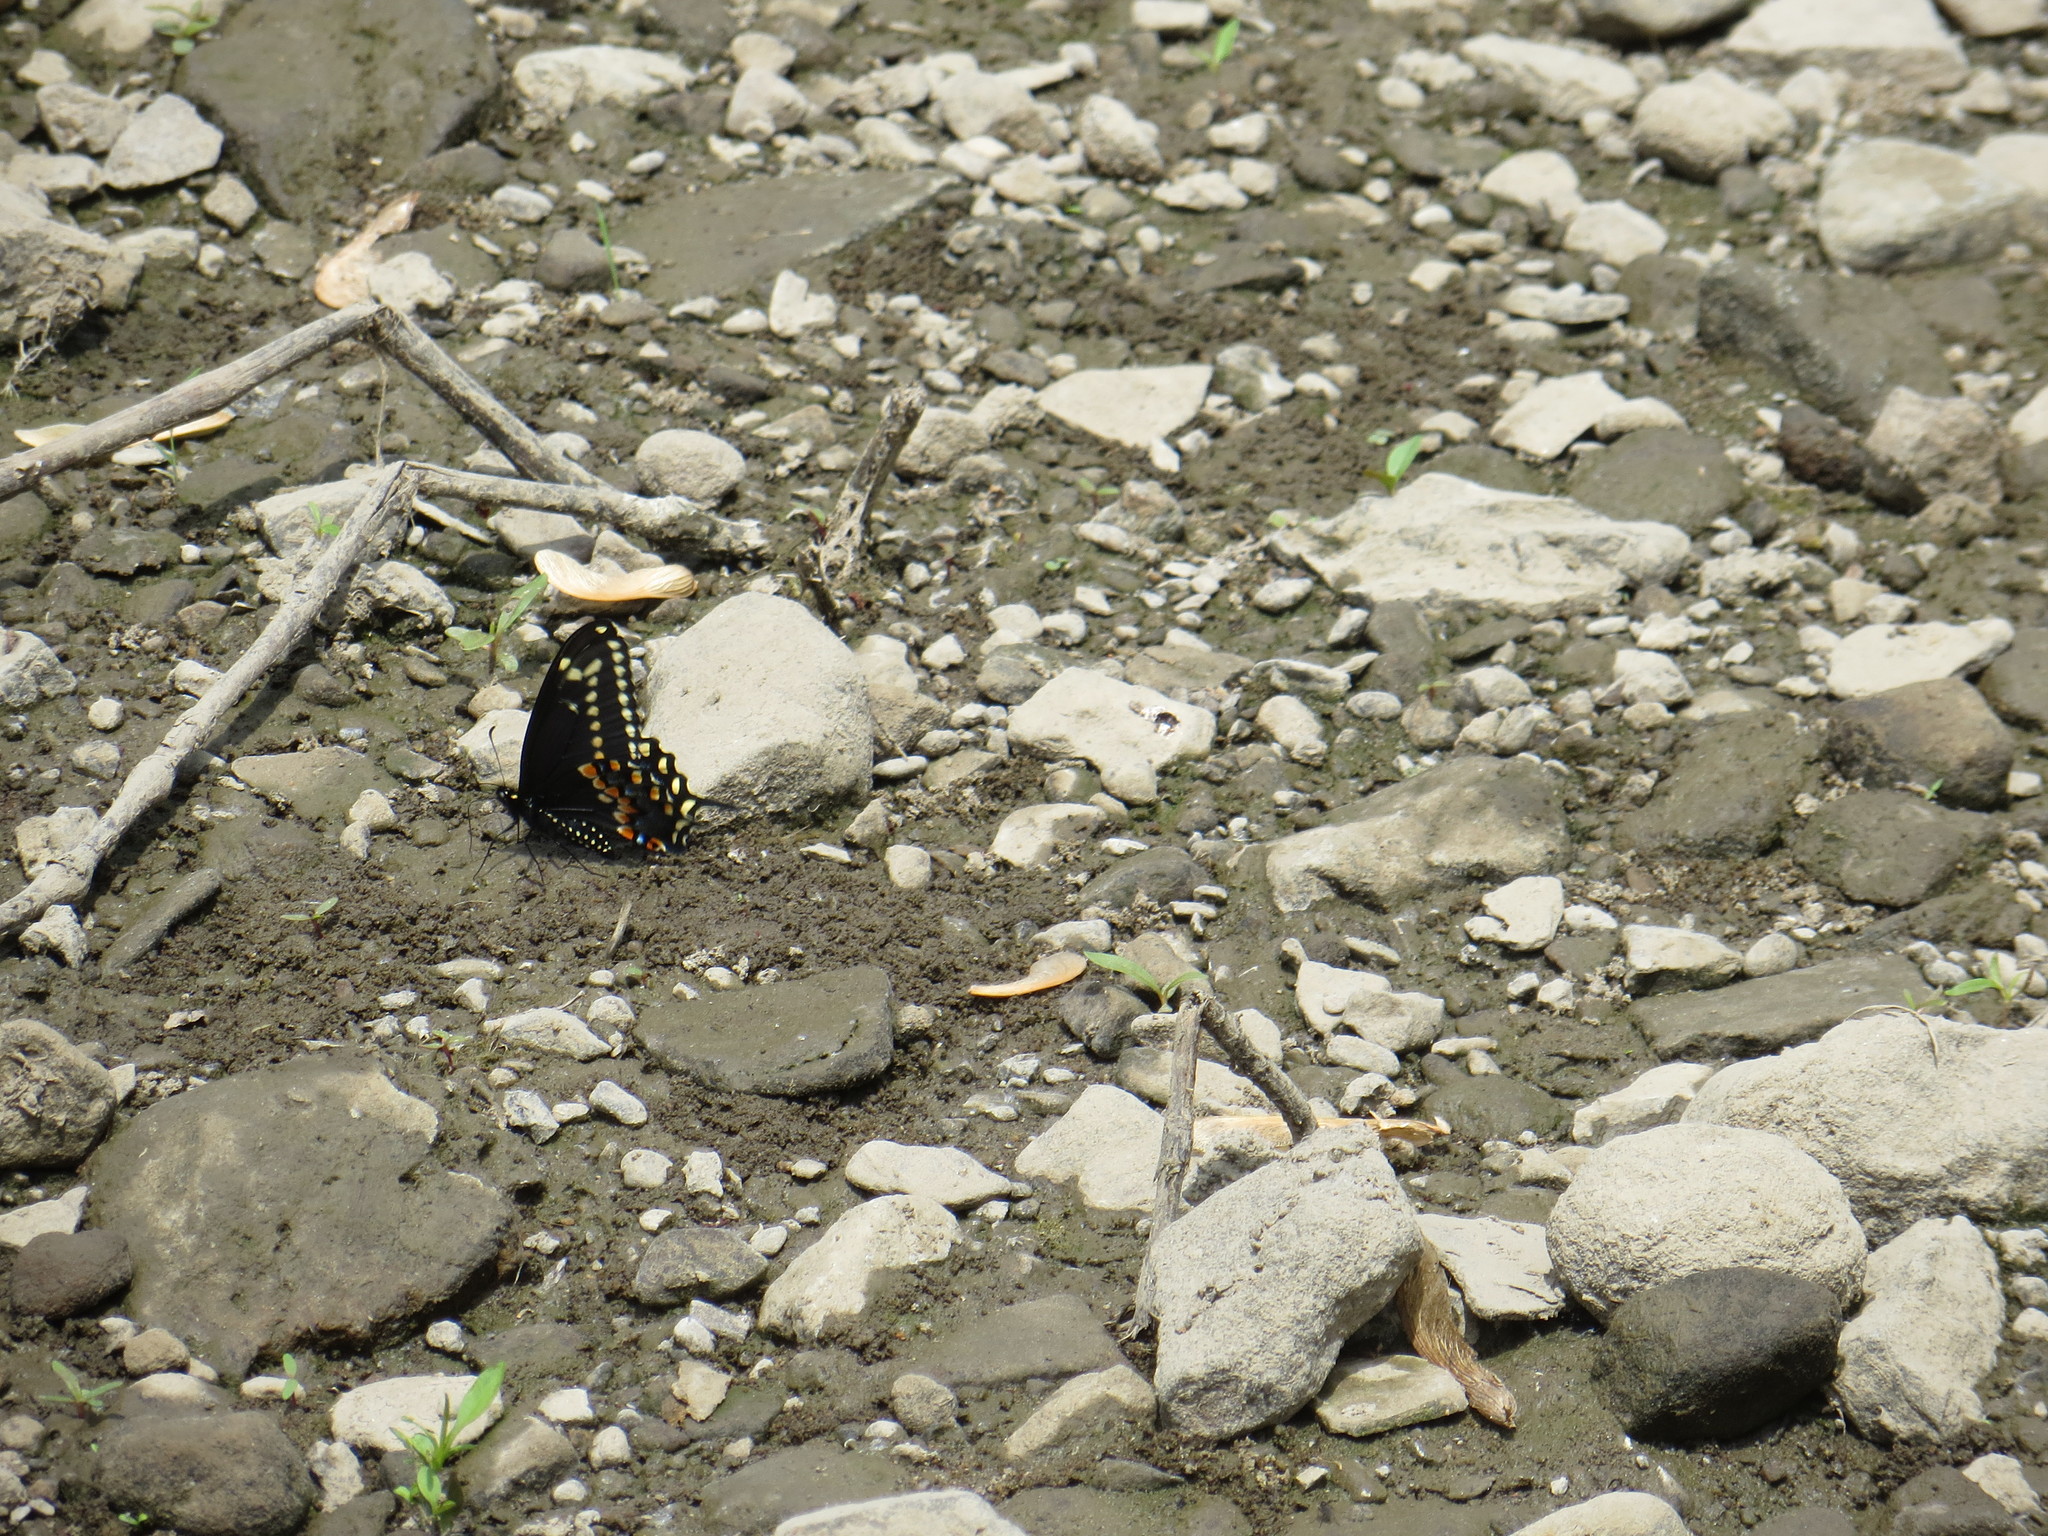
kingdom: Animalia
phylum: Arthropoda
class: Insecta
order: Lepidoptera
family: Papilionidae
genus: Papilio
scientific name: Papilio polyxenes
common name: Black swallowtail
